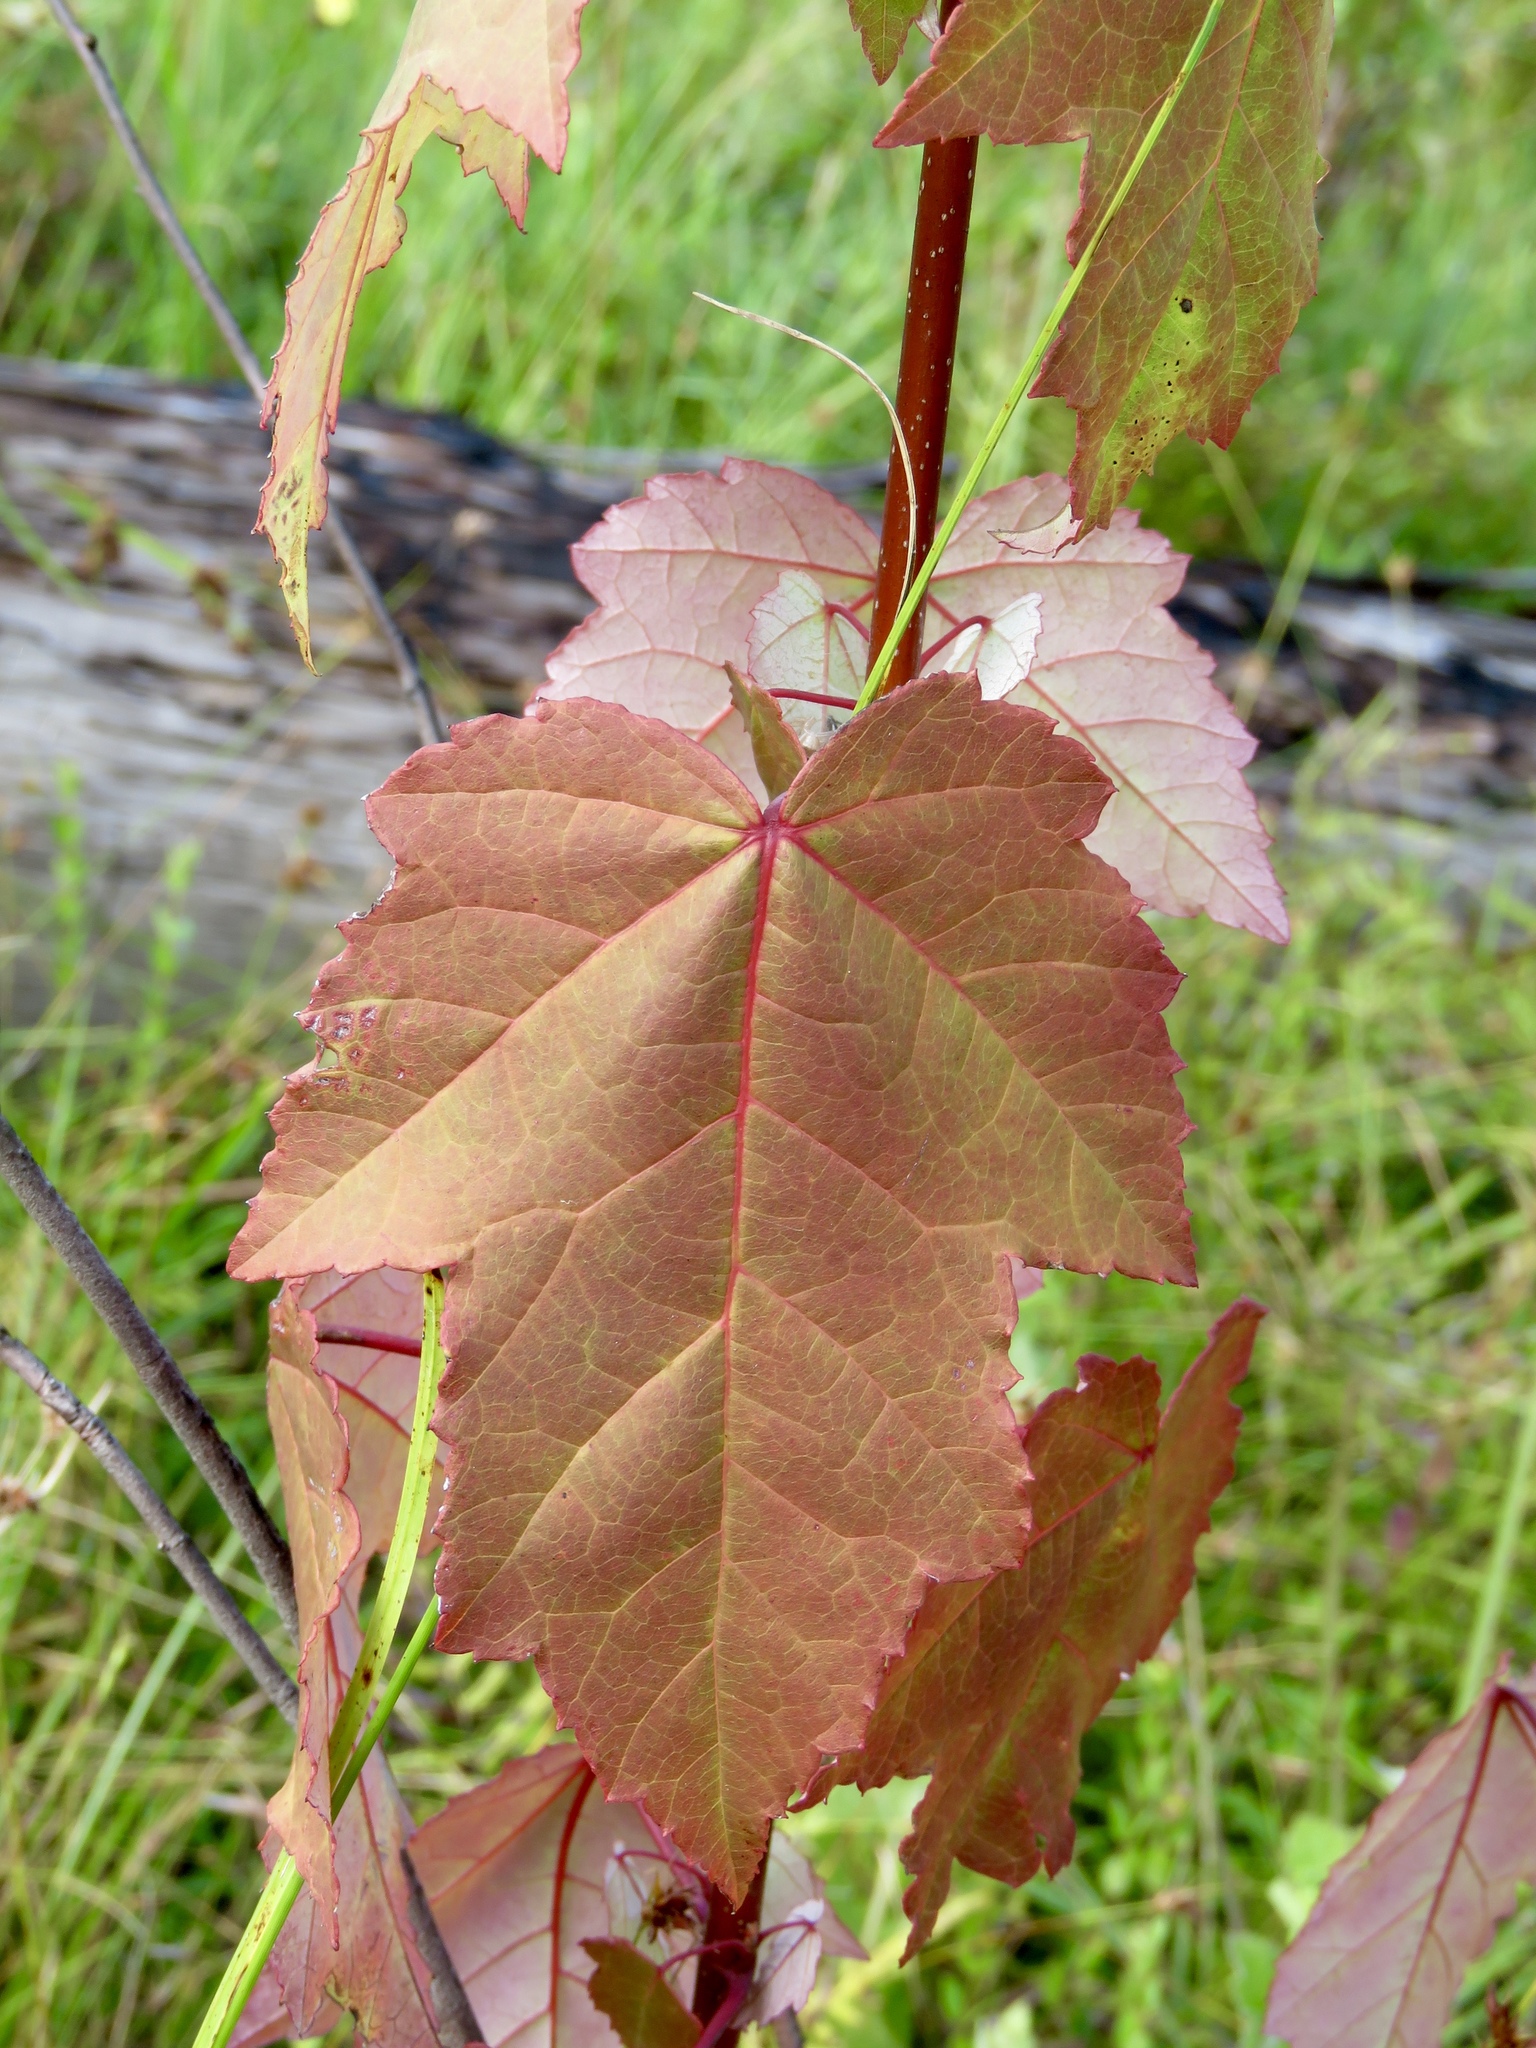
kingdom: Plantae
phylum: Tracheophyta
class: Magnoliopsida
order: Sapindales
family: Sapindaceae
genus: Acer
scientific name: Acer rubrum
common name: Red maple
